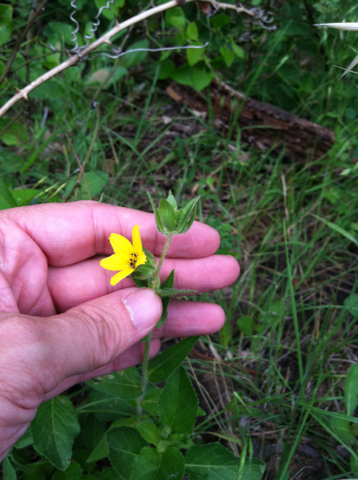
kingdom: Plantae
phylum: Tracheophyta
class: Magnoliopsida
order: Asterales
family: Asteraceae
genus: Lindheimera
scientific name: Lindheimera texana
